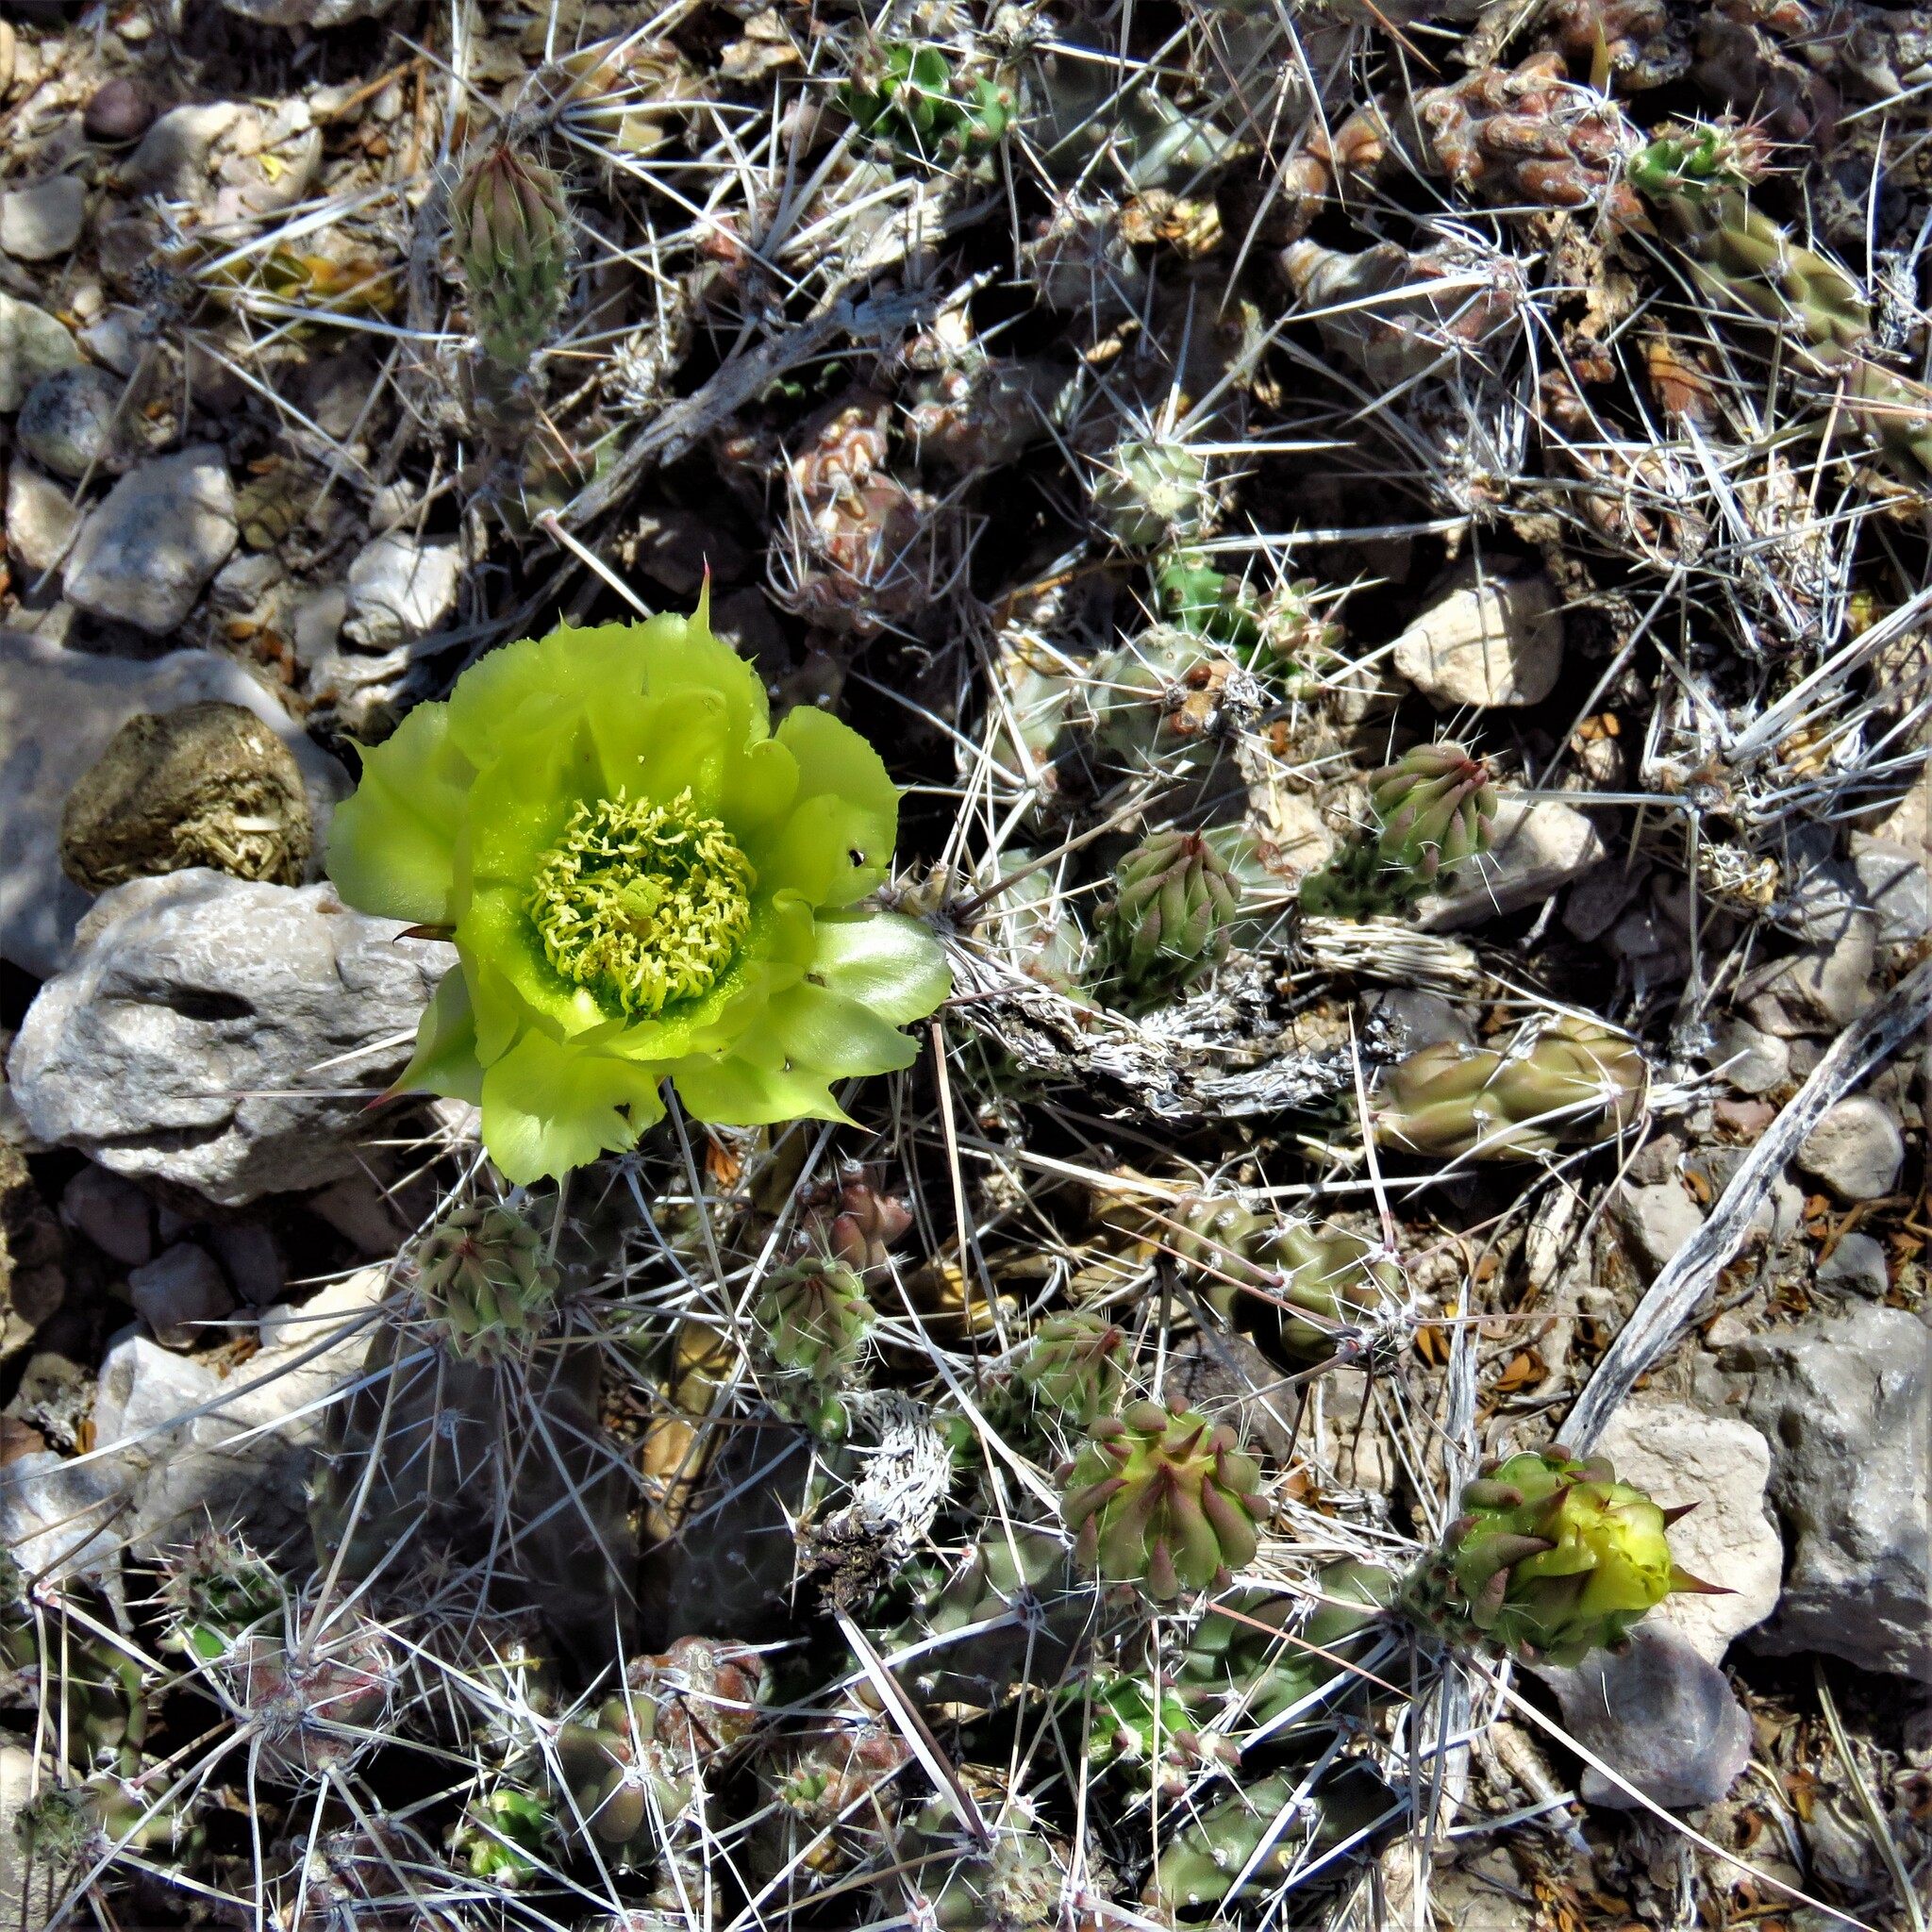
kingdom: Plantae
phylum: Tracheophyta
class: Magnoliopsida
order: Caryophyllales
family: Cactaceae
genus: Grusonia
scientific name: Grusonia aggeria
